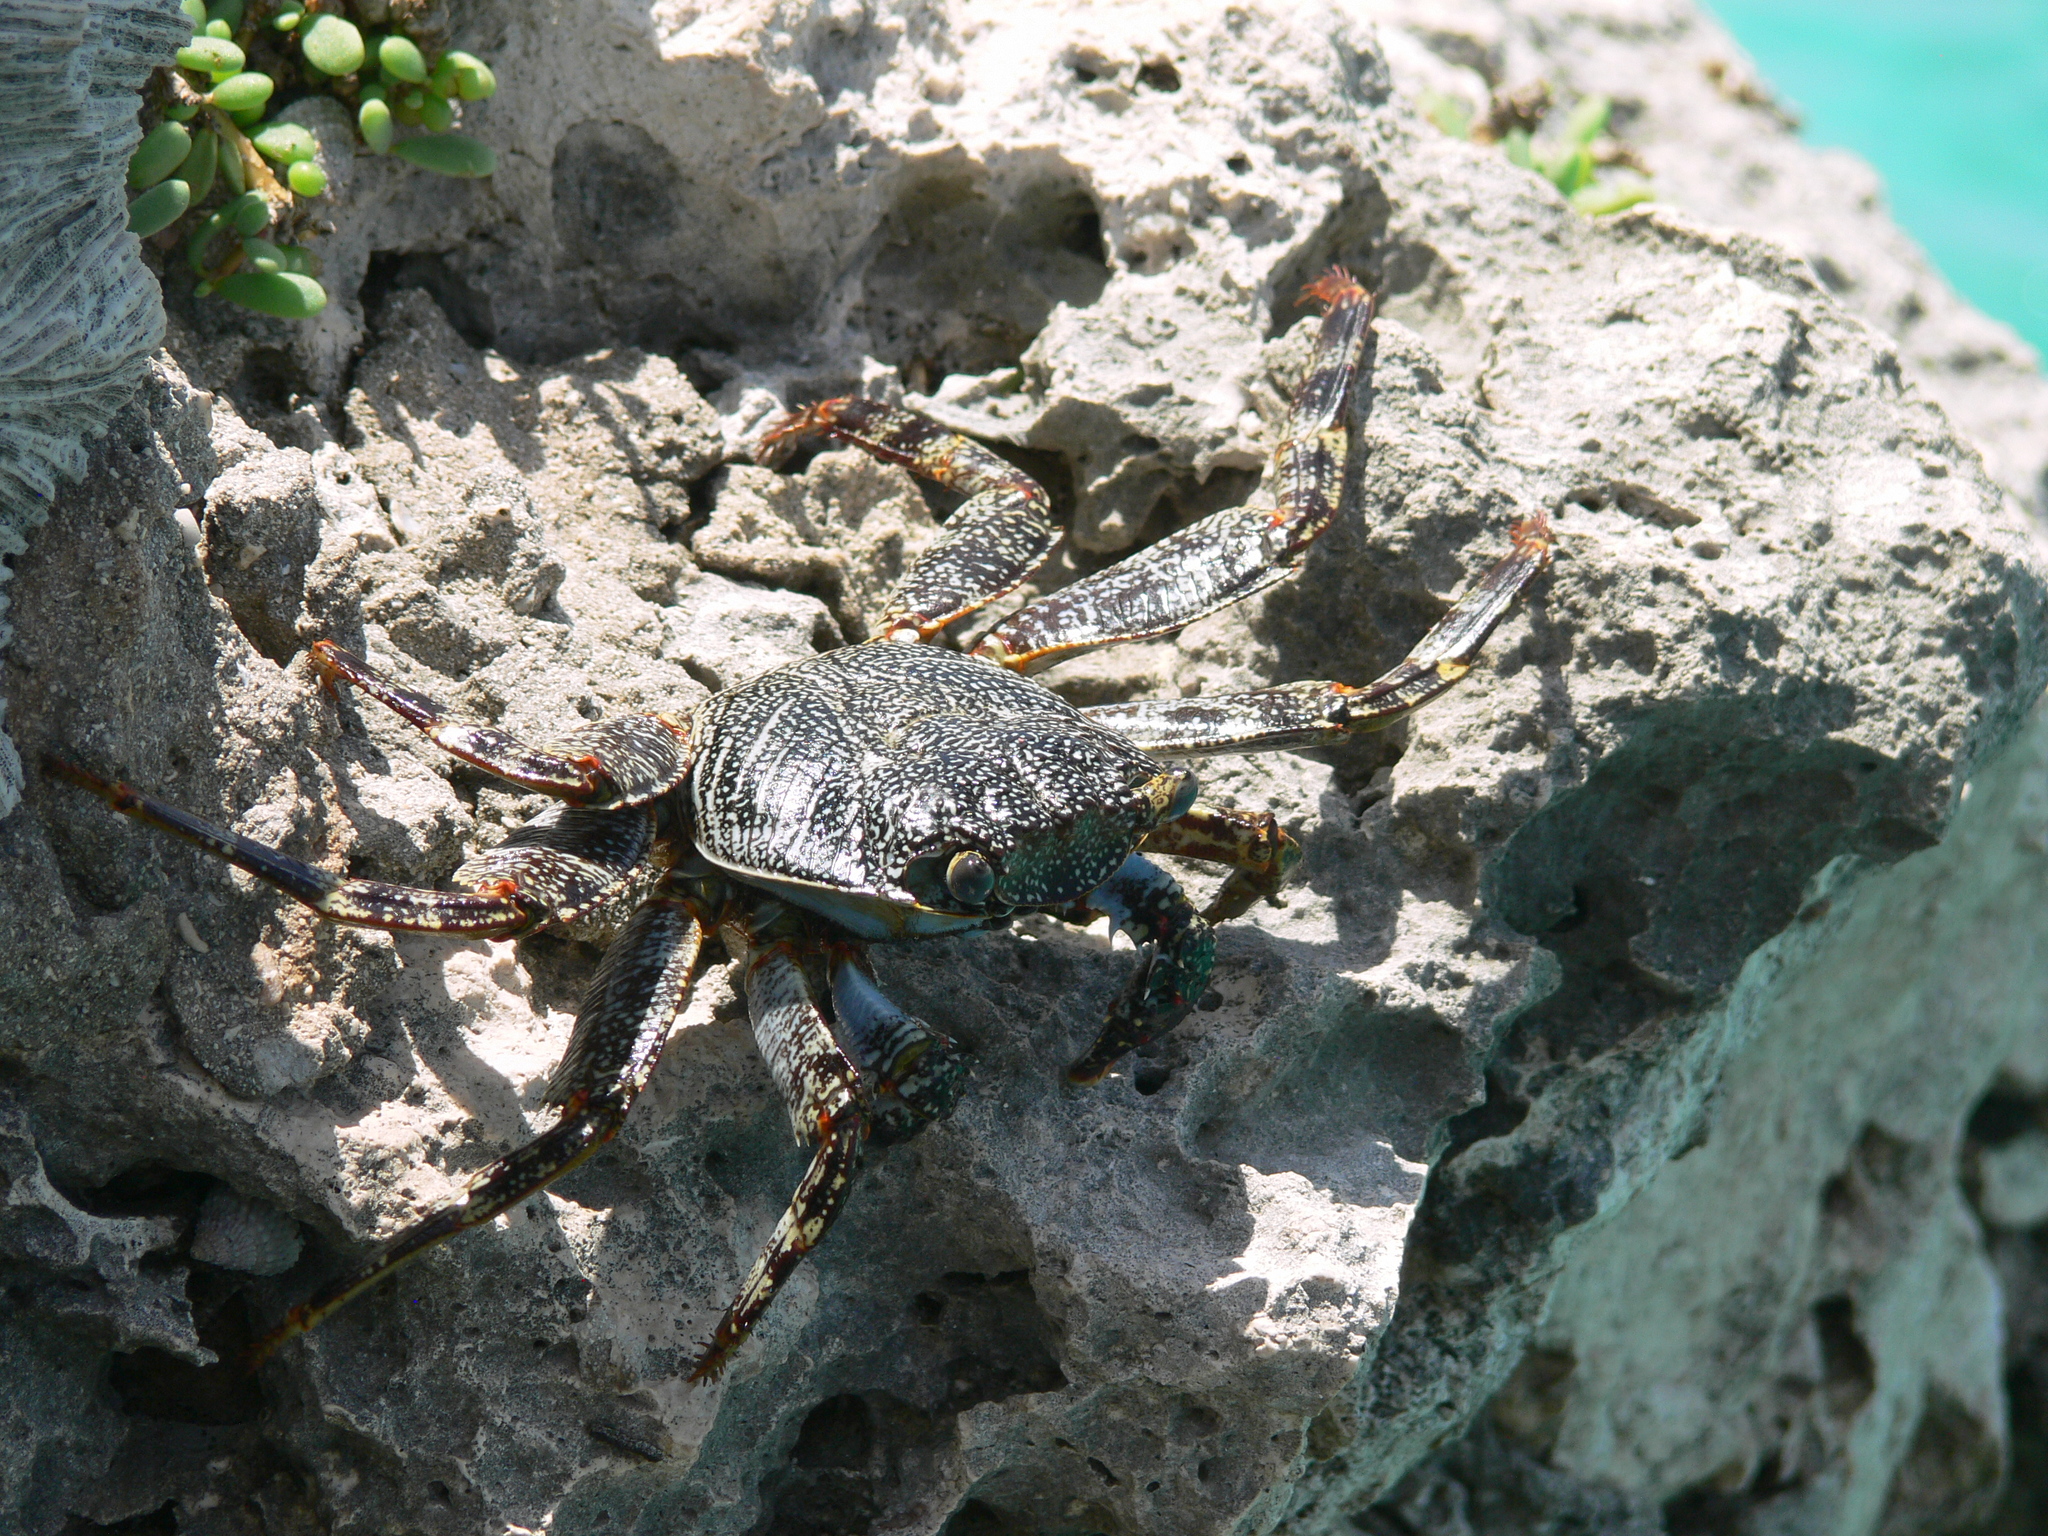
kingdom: Animalia
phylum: Arthropoda
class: Malacostraca
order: Decapoda
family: Grapsidae
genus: Grapsus
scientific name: Grapsus grapsus
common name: Sally lightfoot
